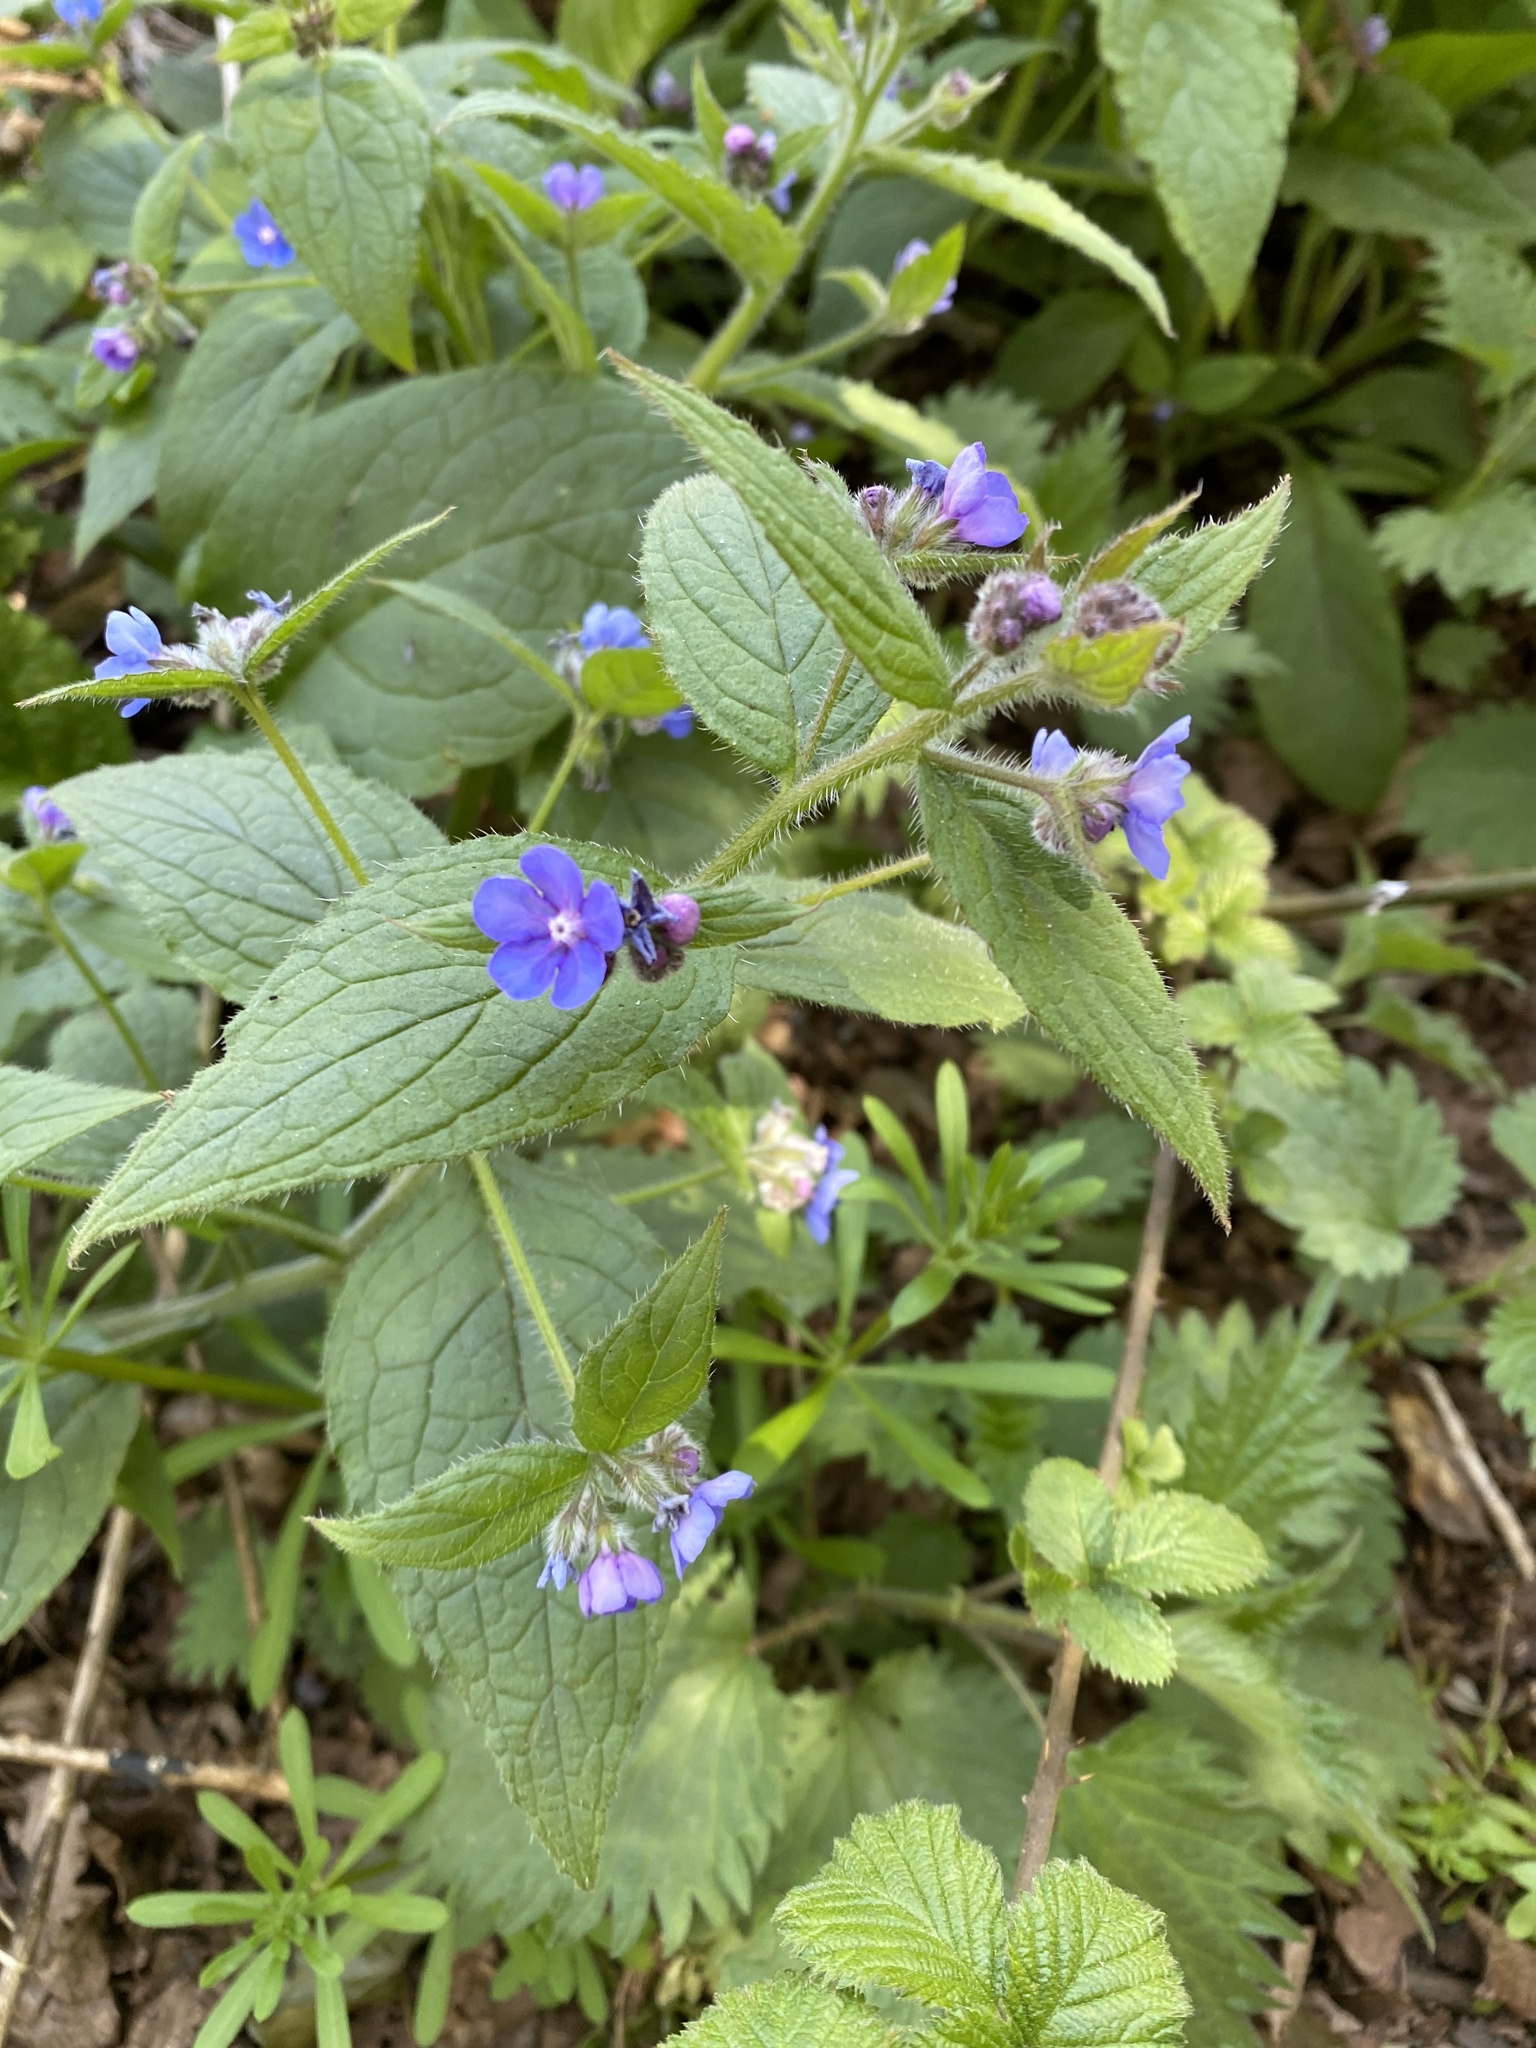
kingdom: Plantae
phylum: Tracheophyta
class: Magnoliopsida
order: Boraginales
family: Boraginaceae
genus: Pentaglottis
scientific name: Pentaglottis sempervirens
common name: Green alkanet
